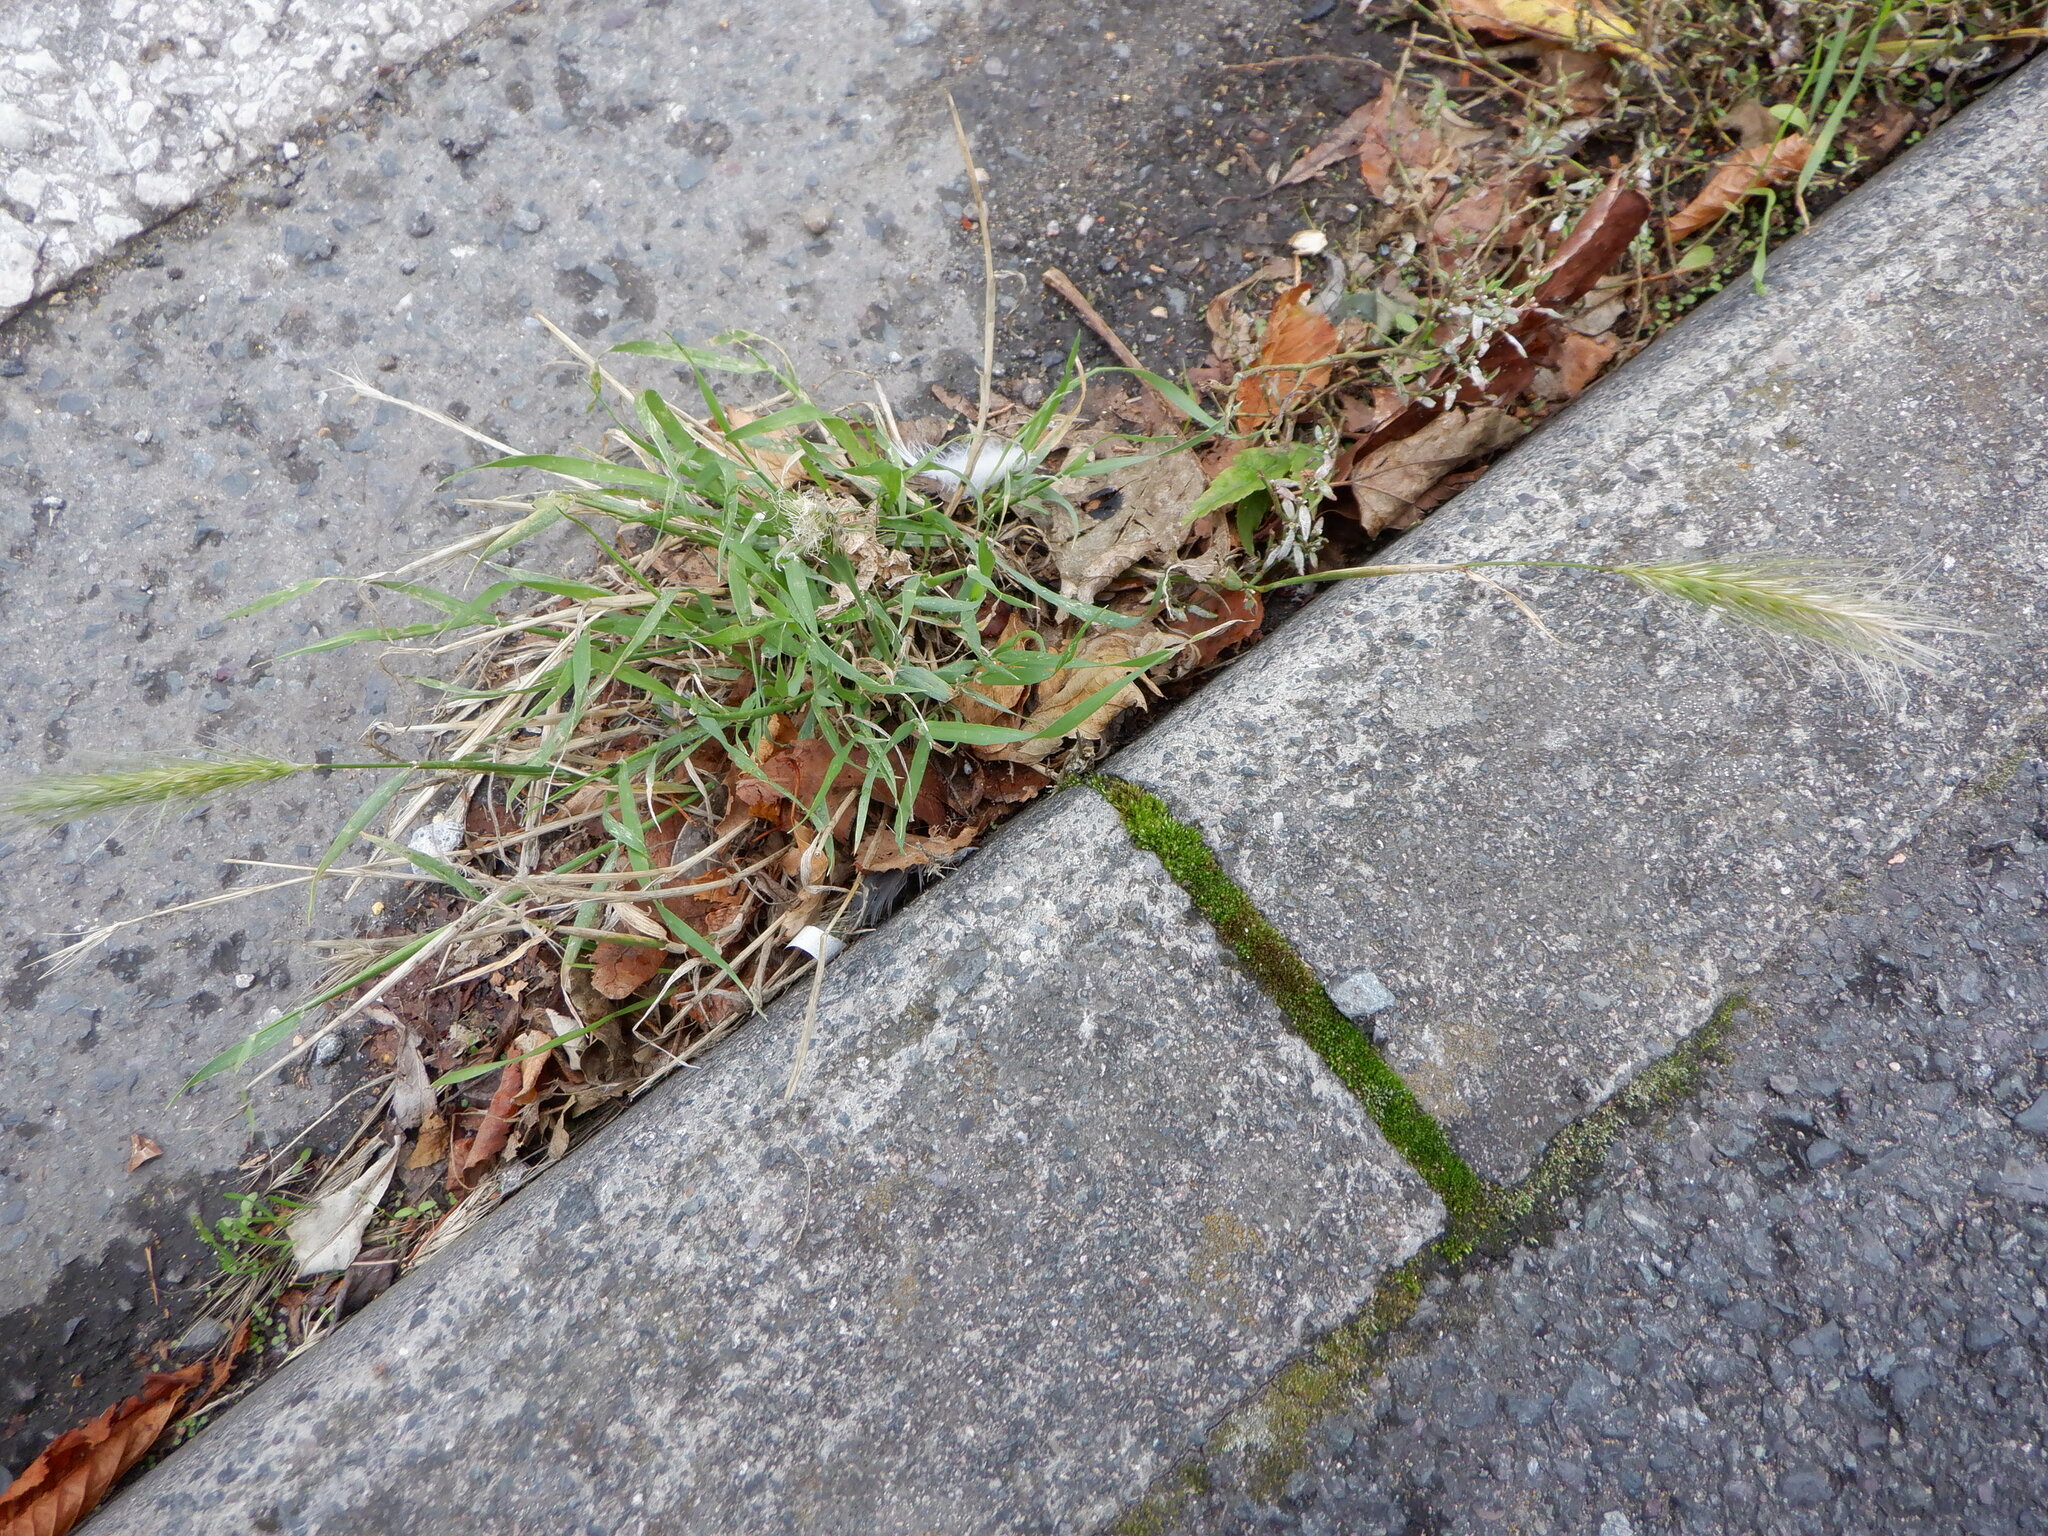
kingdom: Plantae
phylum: Tracheophyta
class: Liliopsida
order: Poales
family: Poaceae
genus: Hordeum
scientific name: Hordeum murinum
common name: Wall barley
